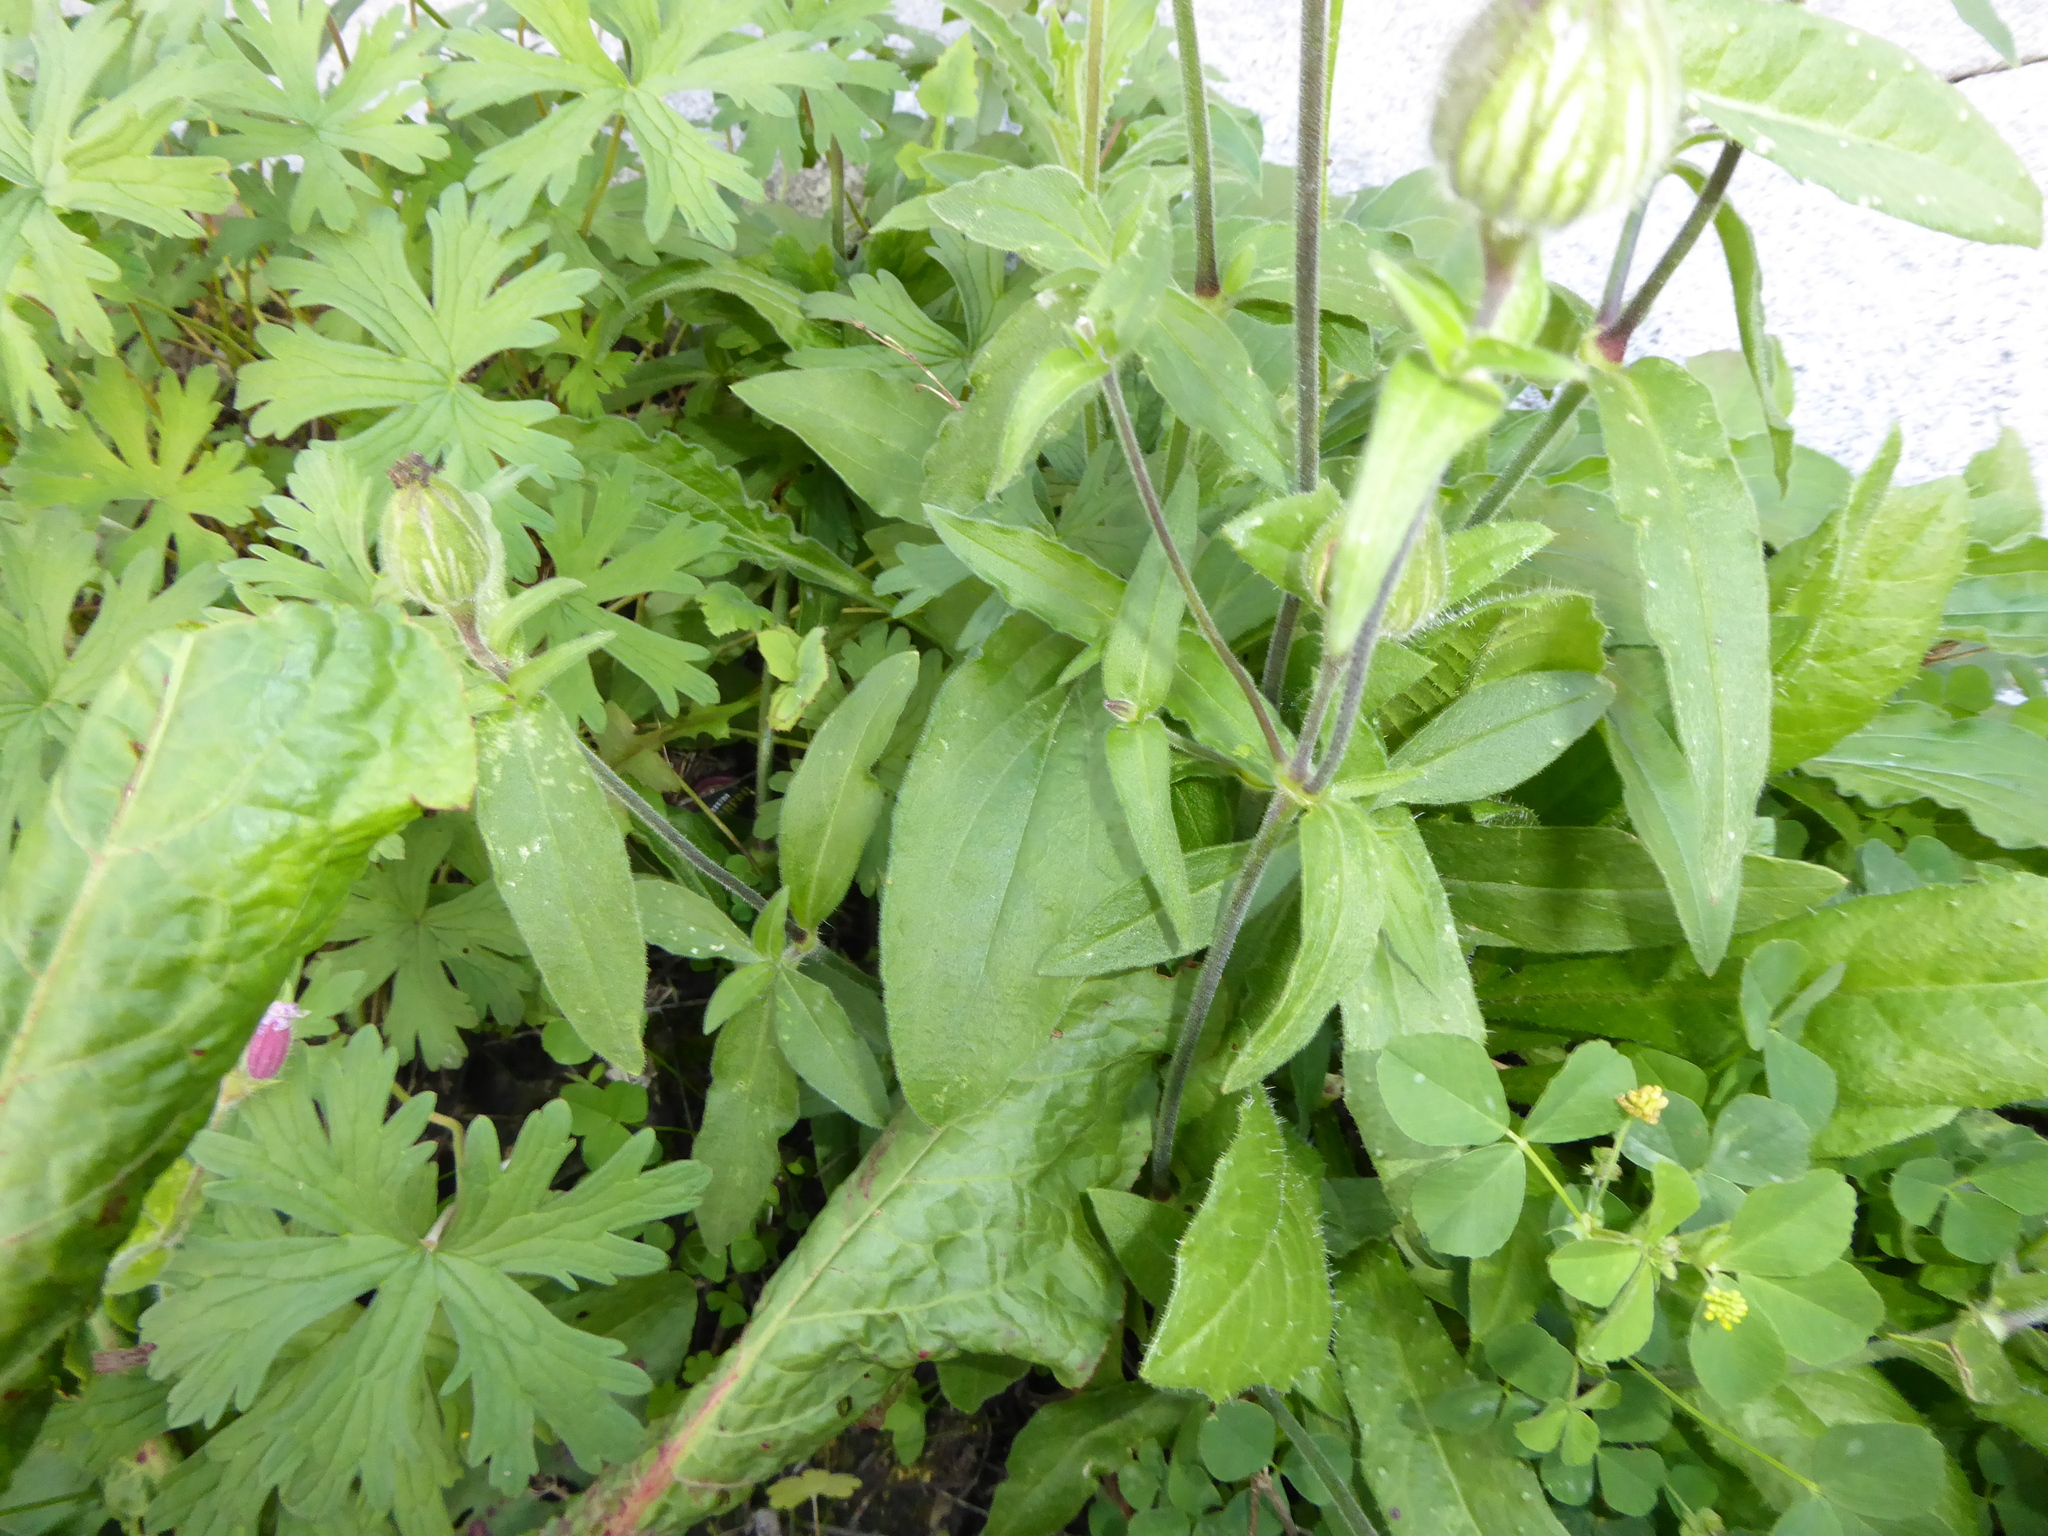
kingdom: Plantae
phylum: Tracheophyta
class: Magnoliopsida
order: Caryophyllales
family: Caryophyllaceae
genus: Silene
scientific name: Silene latifolia
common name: White campion
